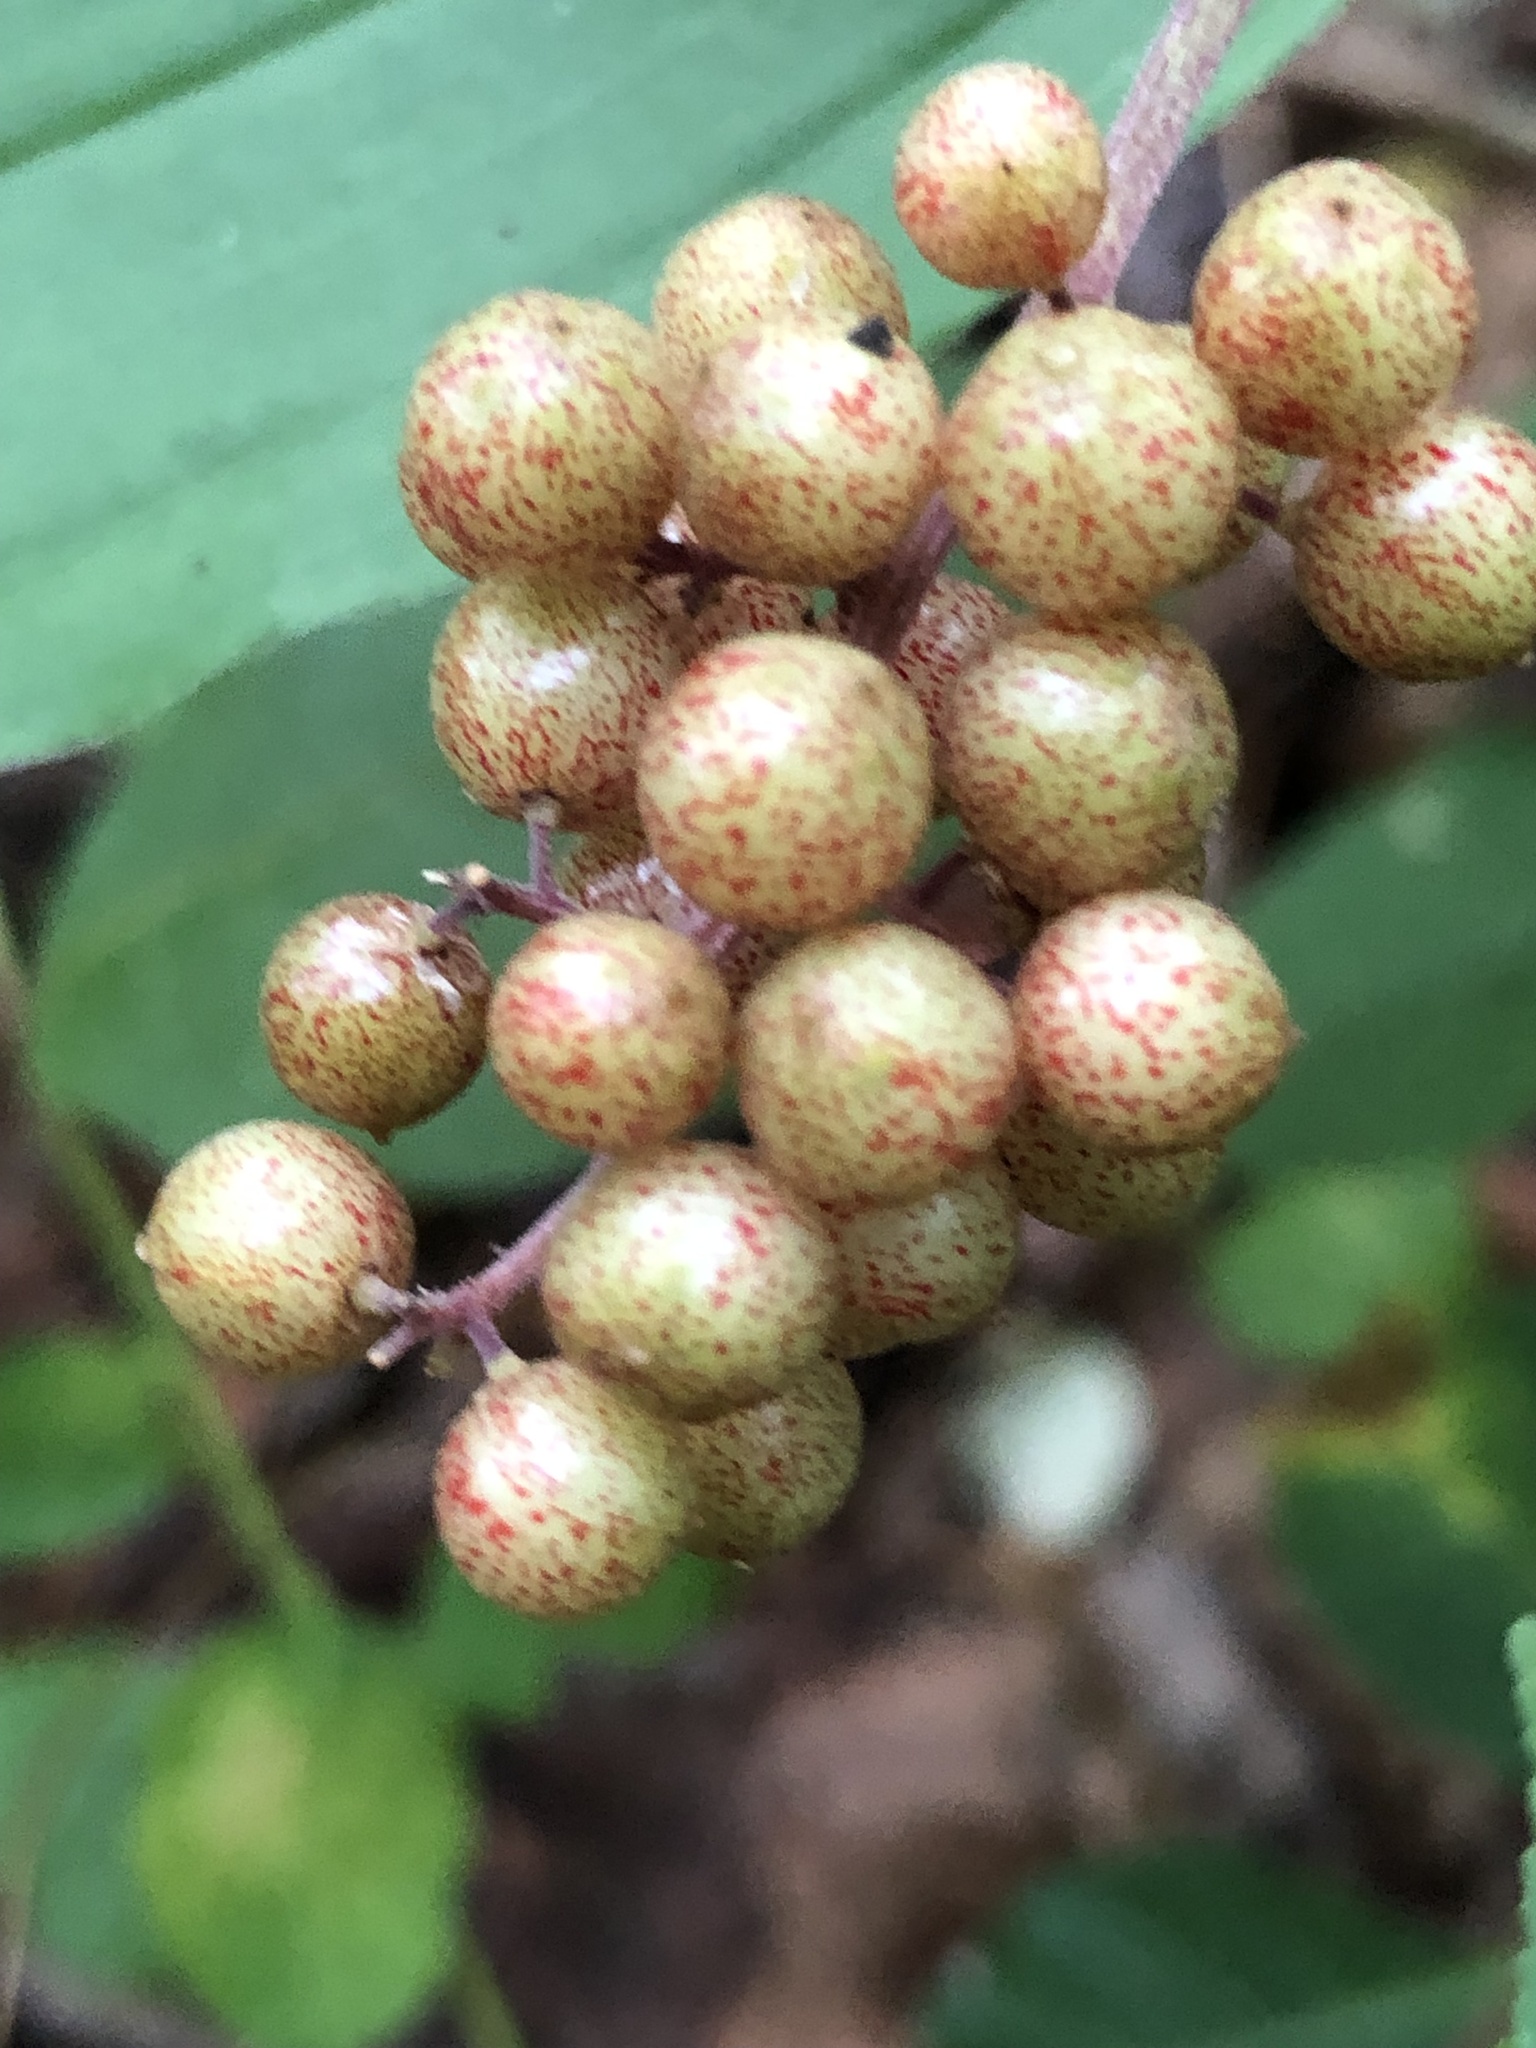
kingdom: Plantae
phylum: Tracheophyta
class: Liliopsida
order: Asparagales
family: Asparagaceae
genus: Maianthemum
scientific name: Maianthemum racemosum
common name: False spikenard
